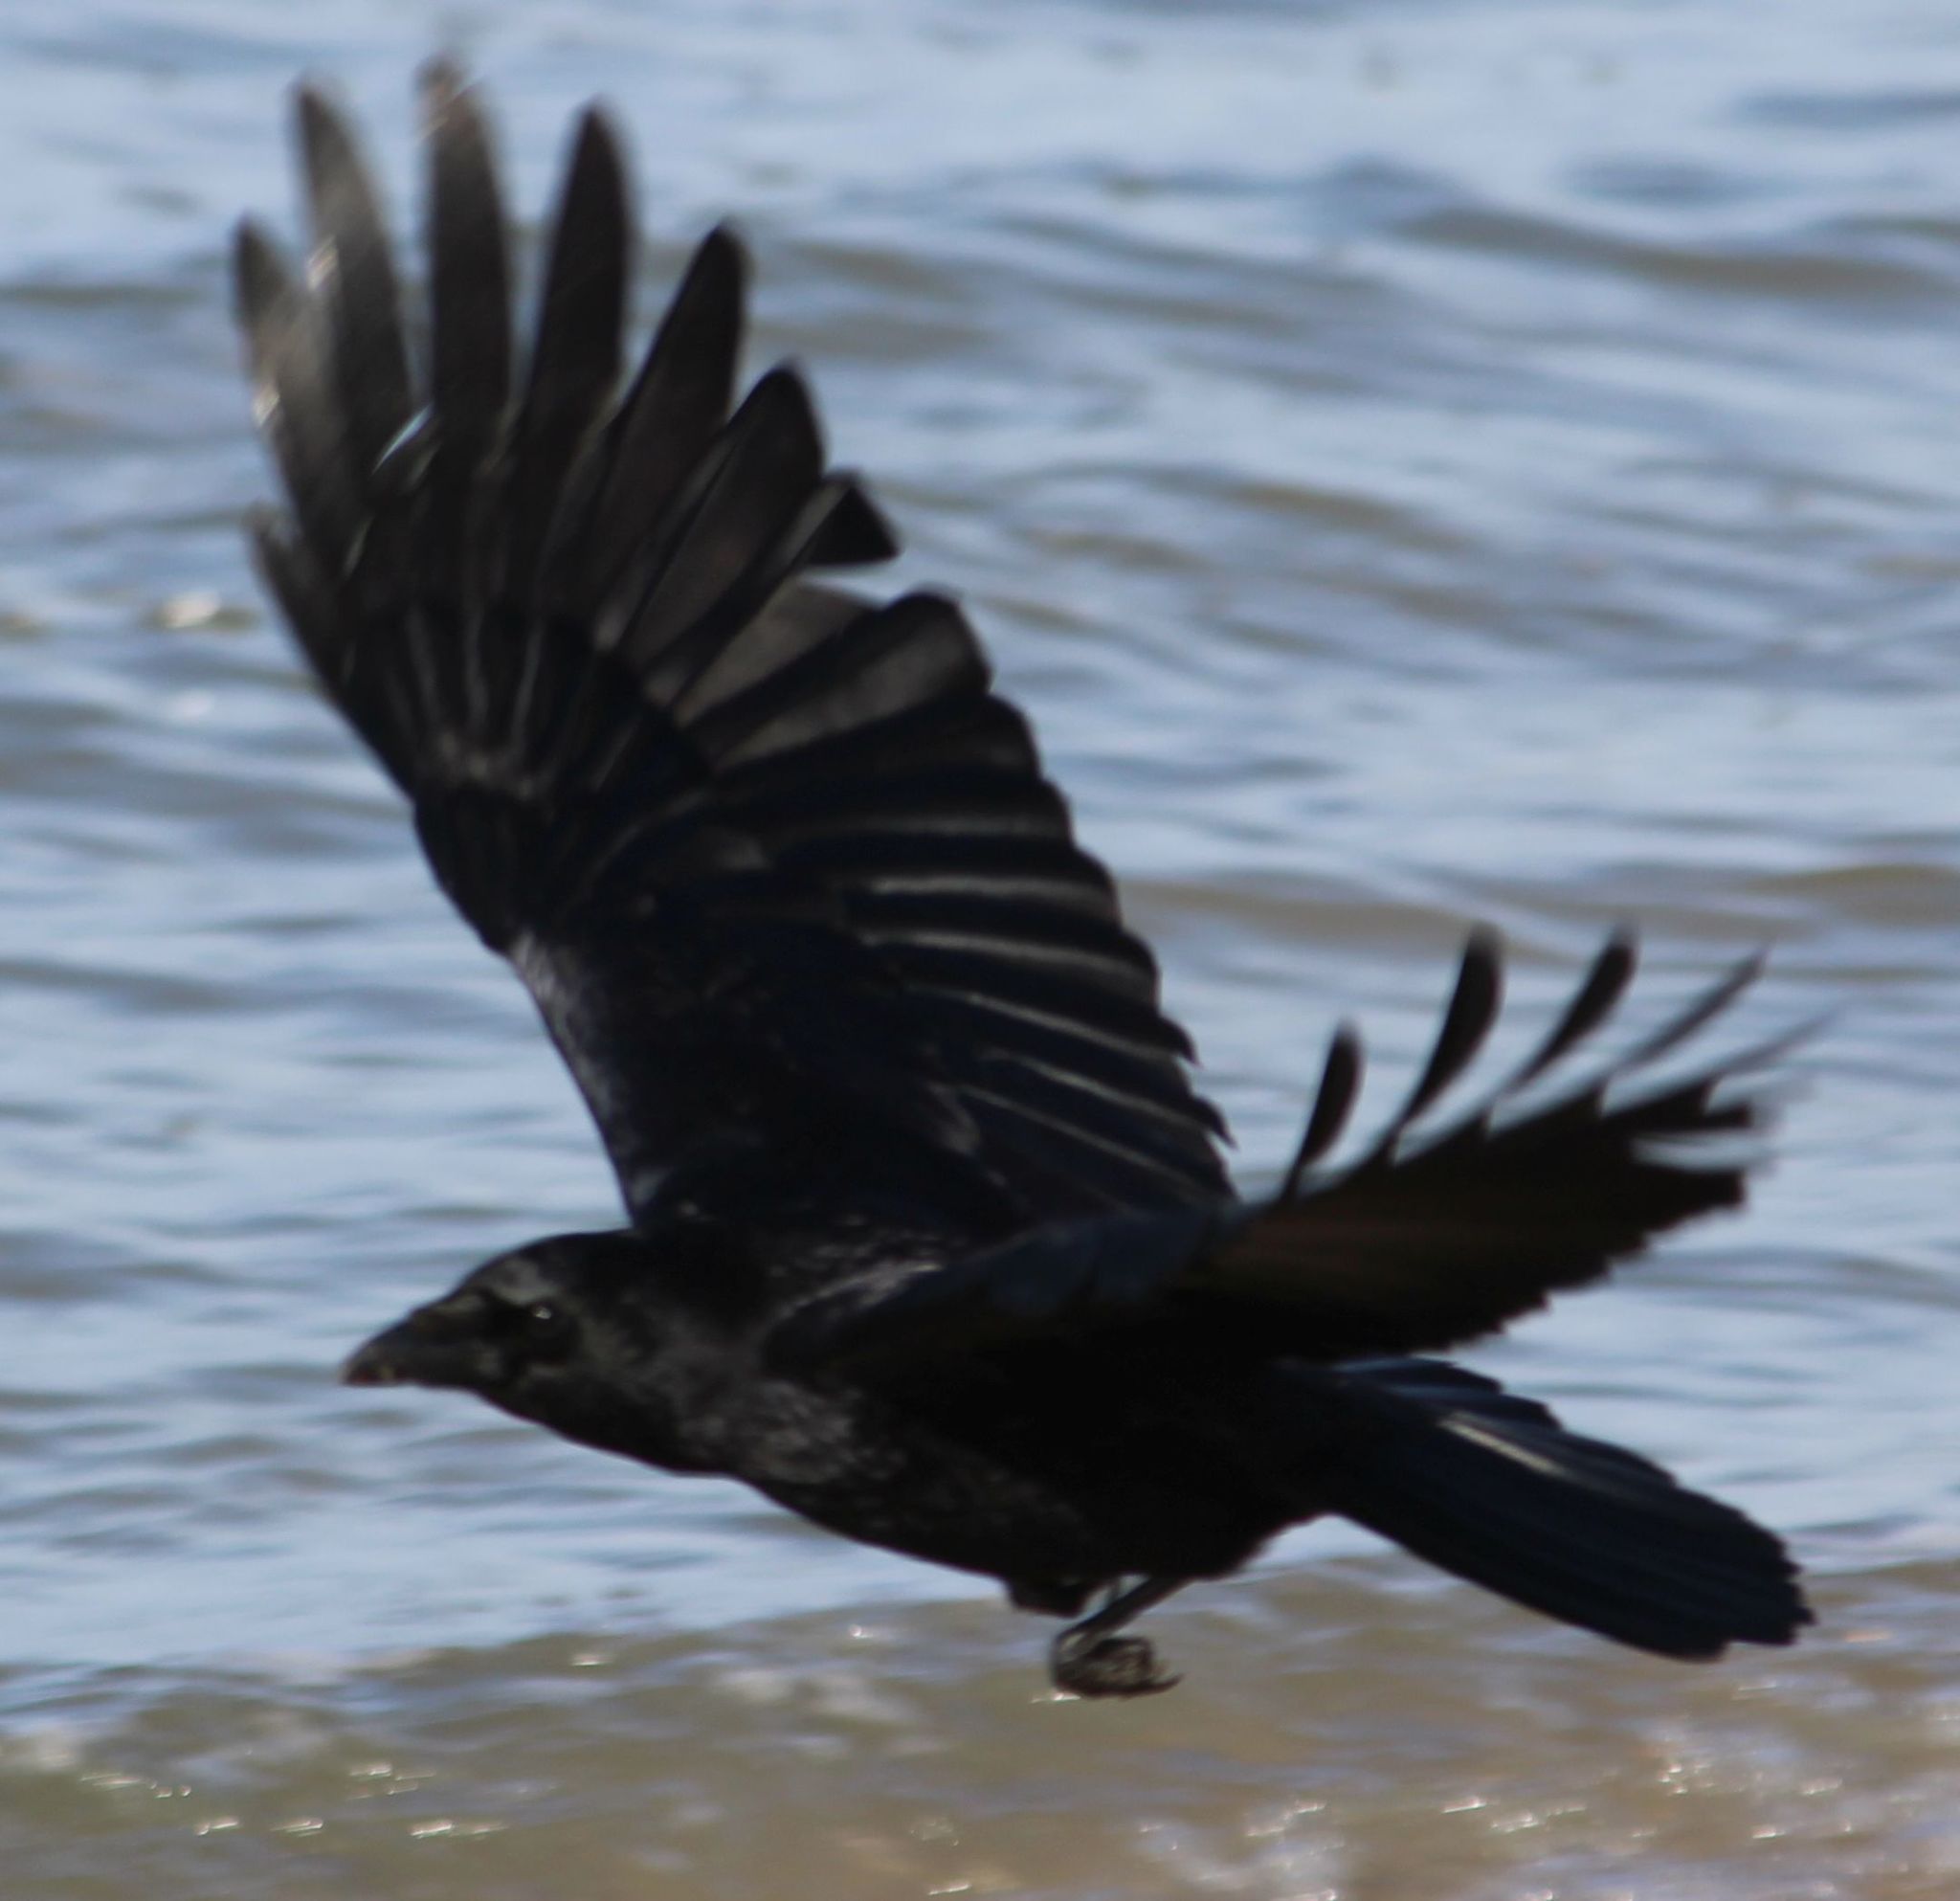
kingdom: Animalia
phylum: Chordata
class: Aves
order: Passeriformes
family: Corvidae
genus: Corvus
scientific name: Corvus corone
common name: Carrion crow
